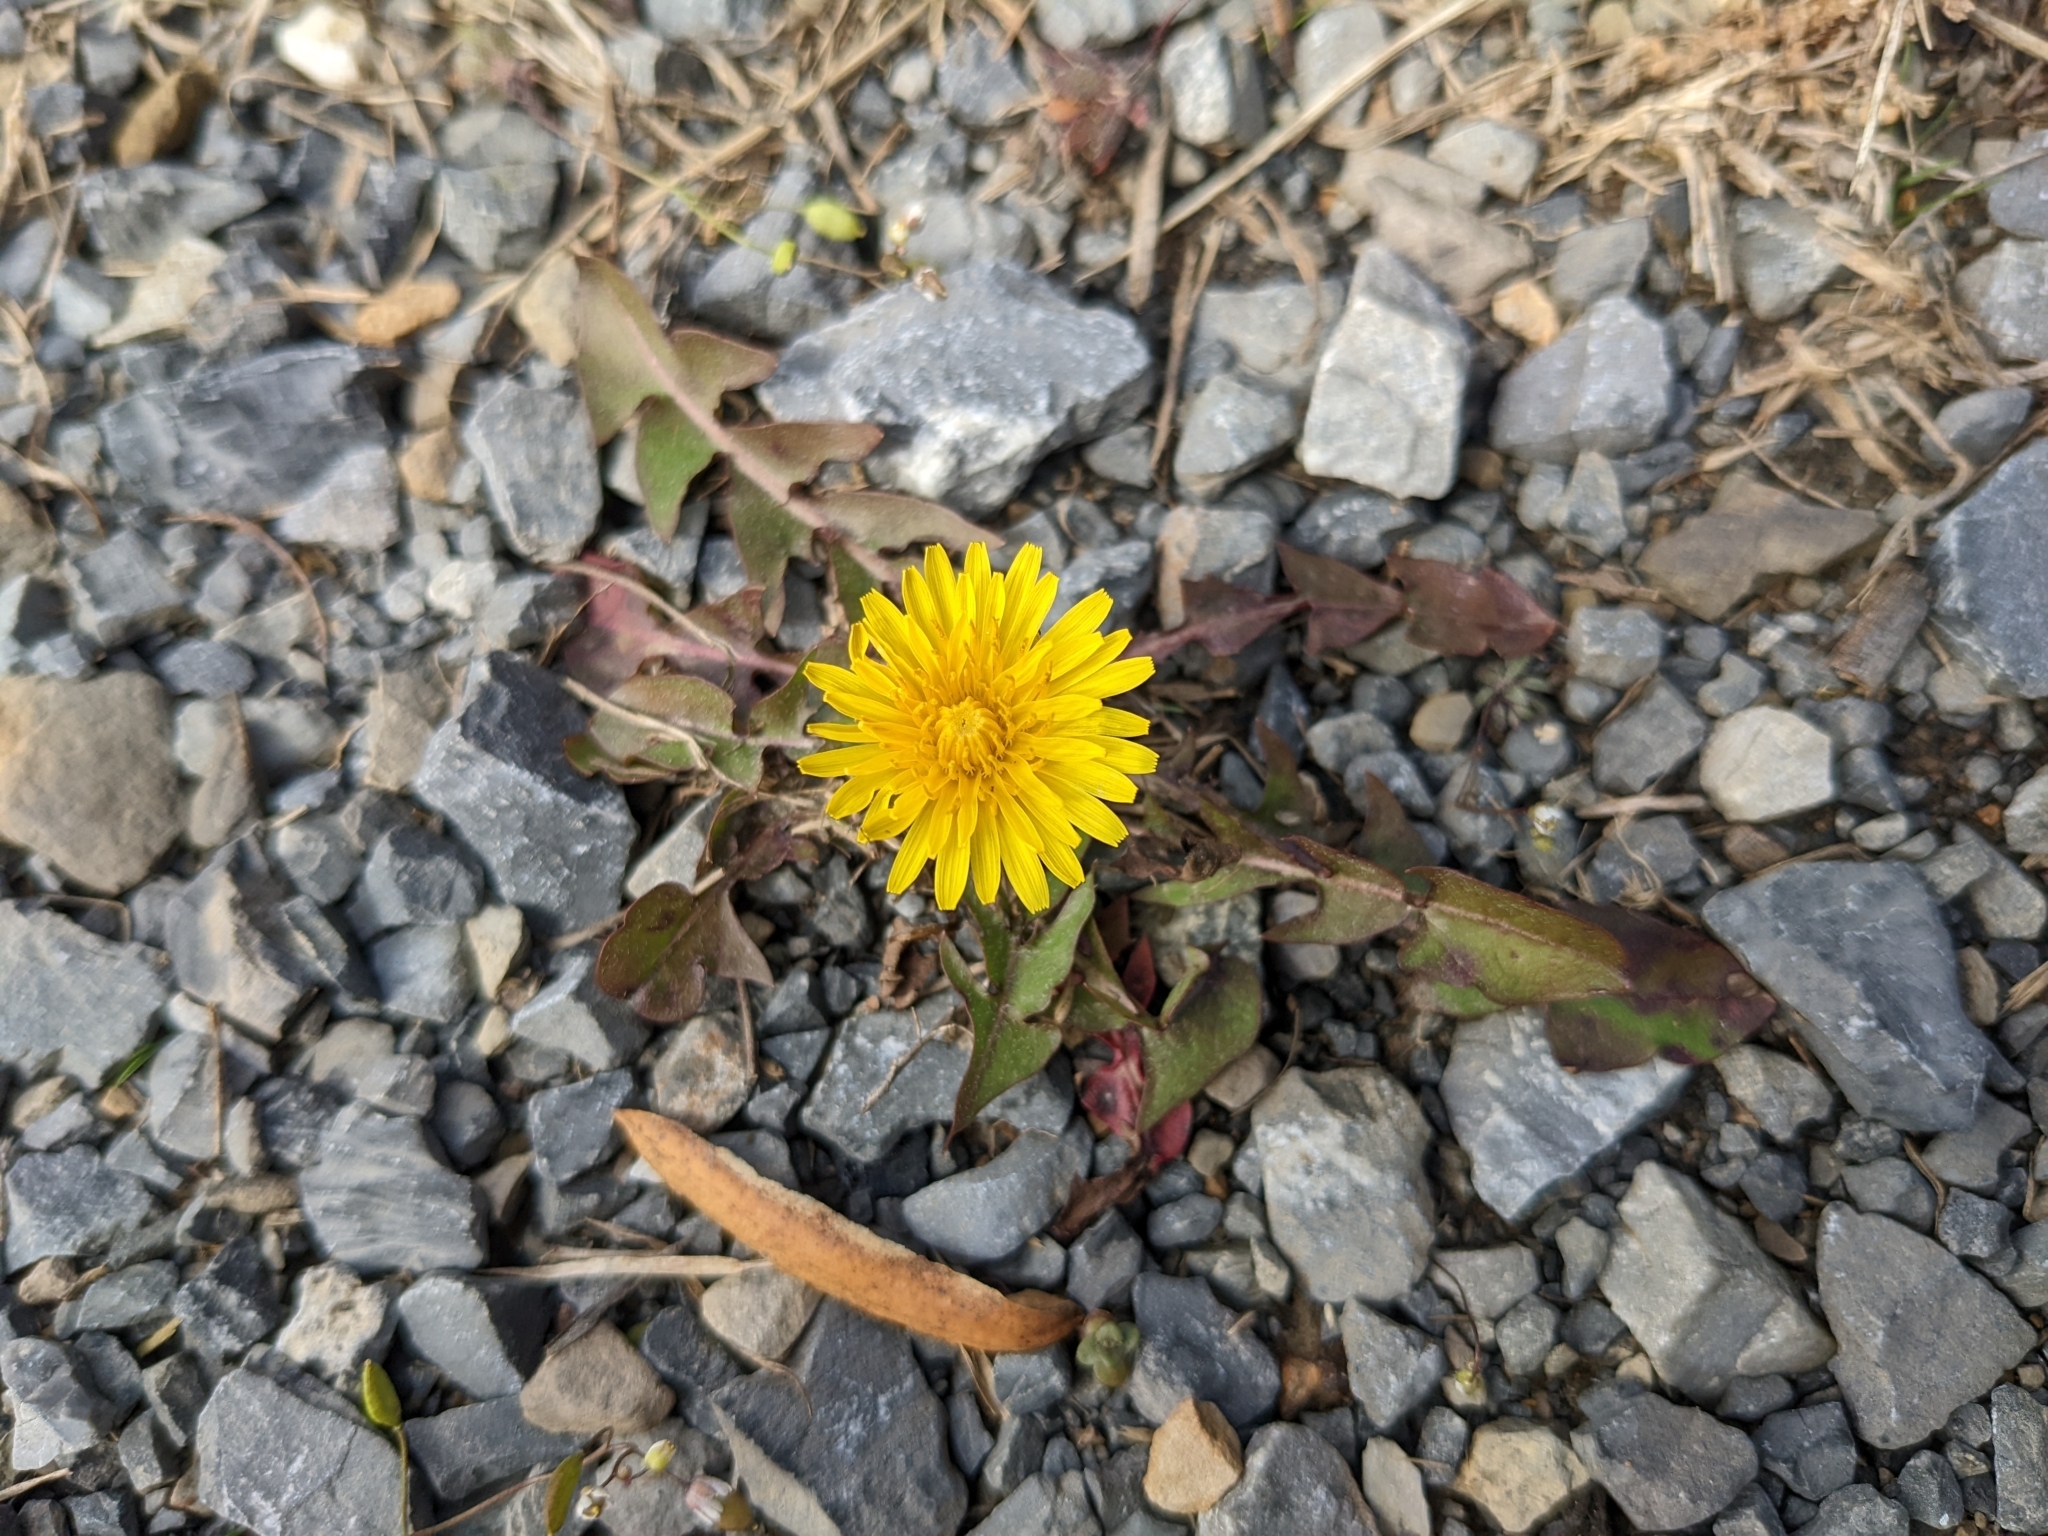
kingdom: Plantae
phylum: Tracheophyta
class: Magnoliopsida
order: Asterales
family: Asteraceae
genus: Taraxacum
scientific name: Taraxacum
